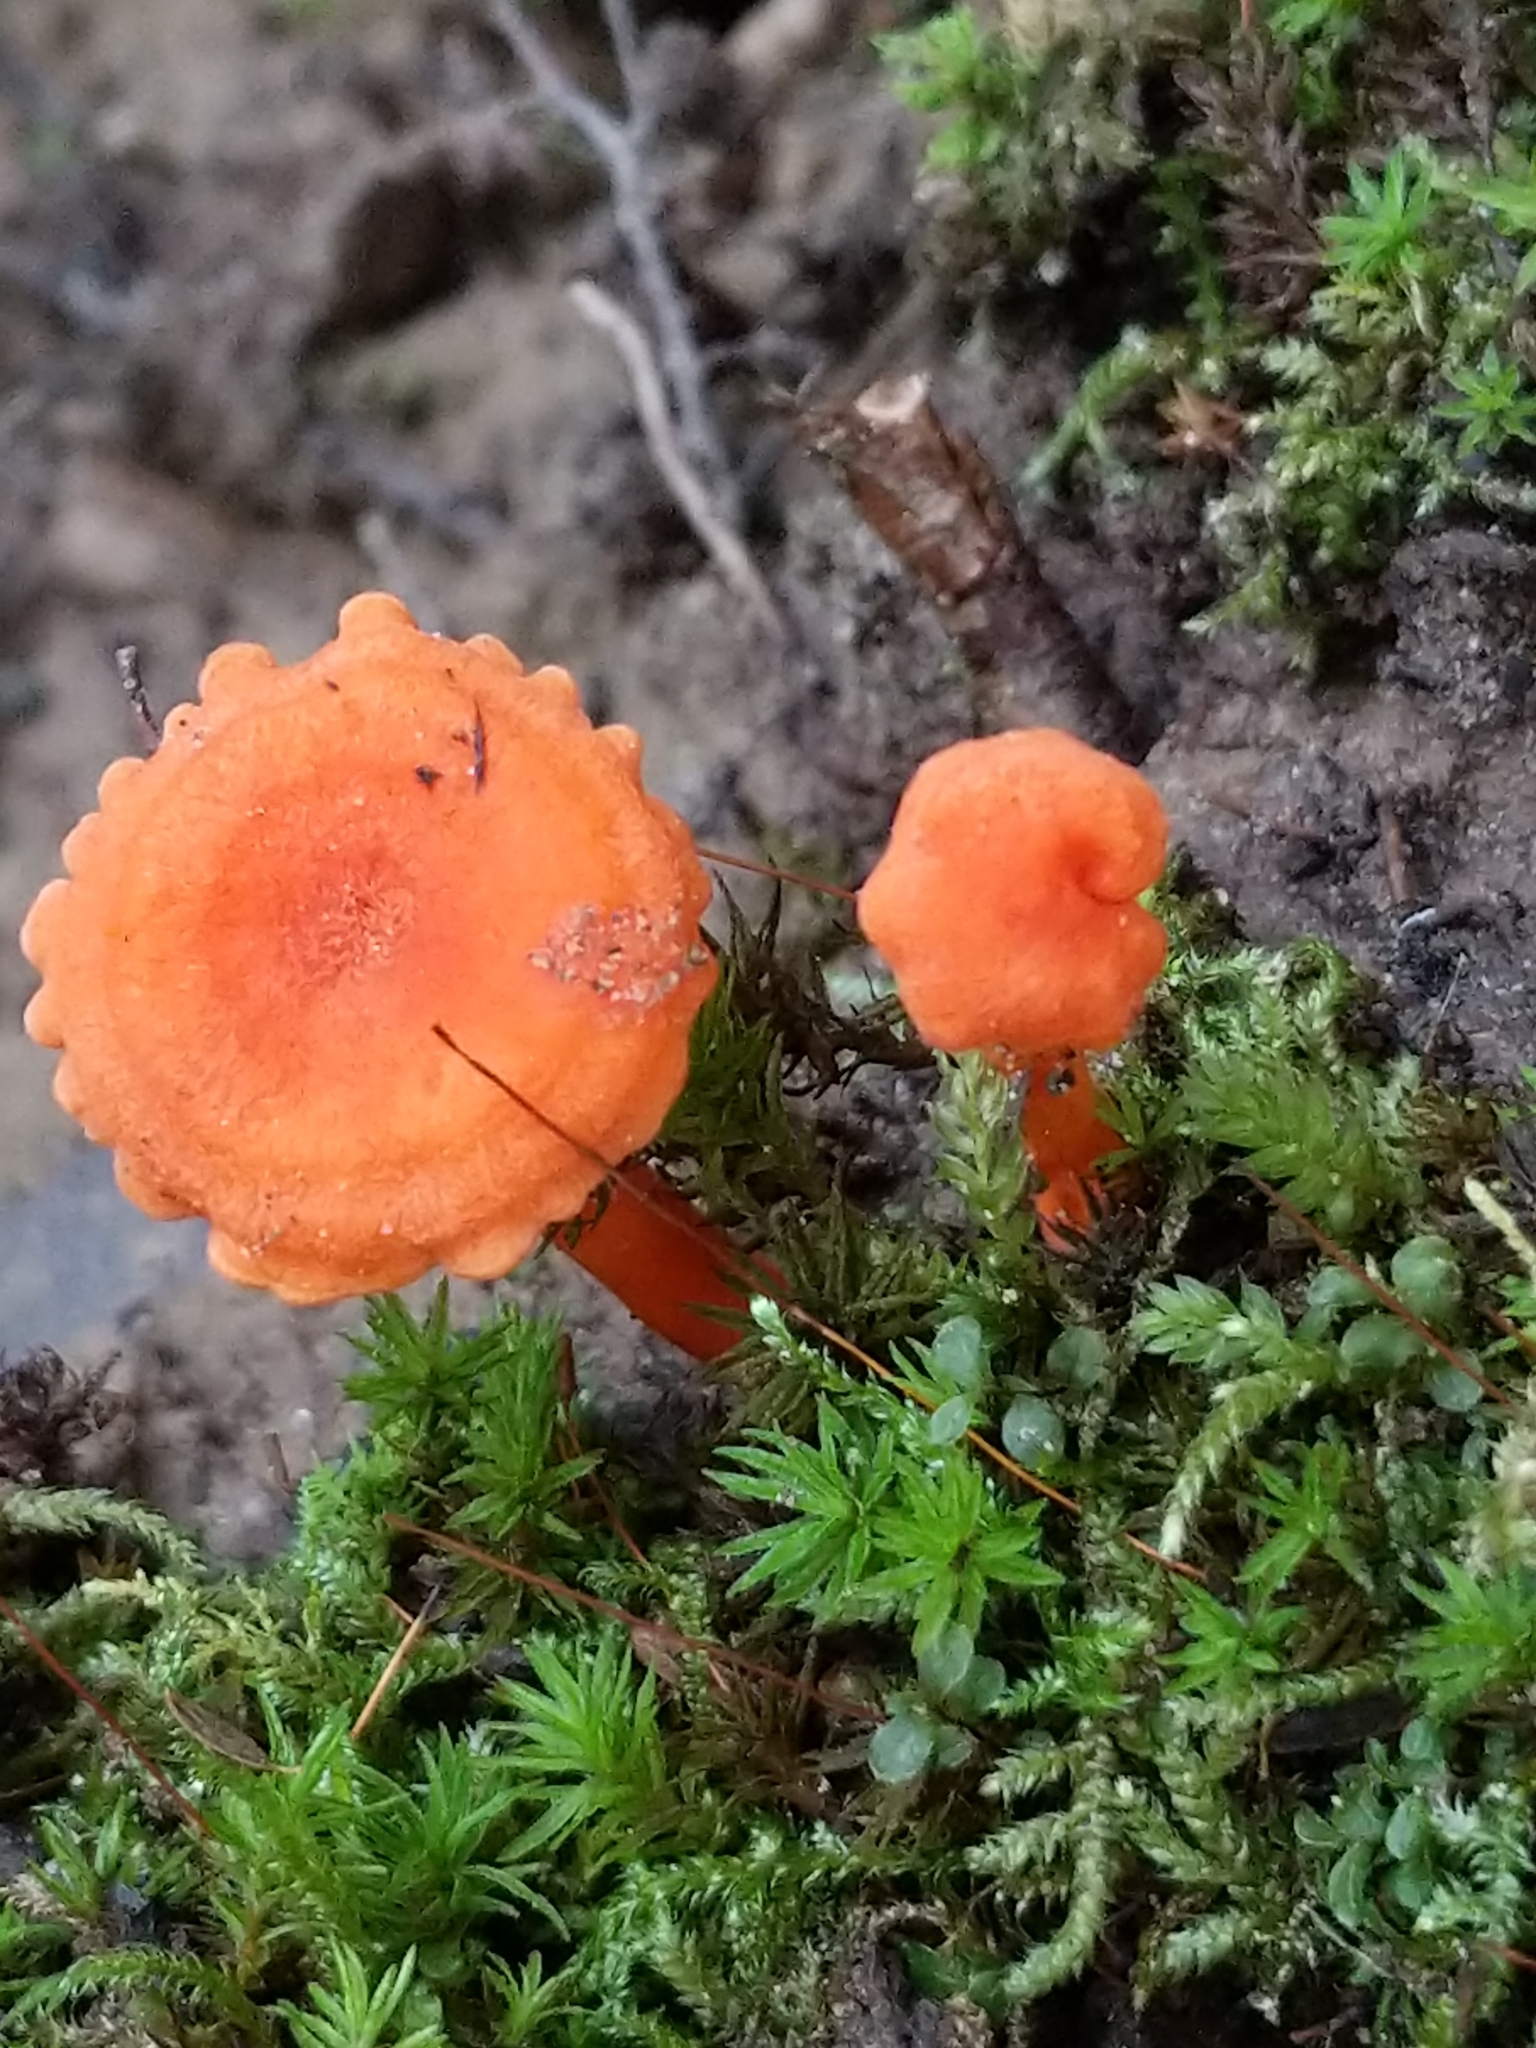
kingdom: Fungi
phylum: Basidiomycota
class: Agaricomycetes
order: Cantharellales
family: Hydnaceae
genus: Cantharellus
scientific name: Cantharellus cinnabarinus
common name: Cinnabar chanterelle
